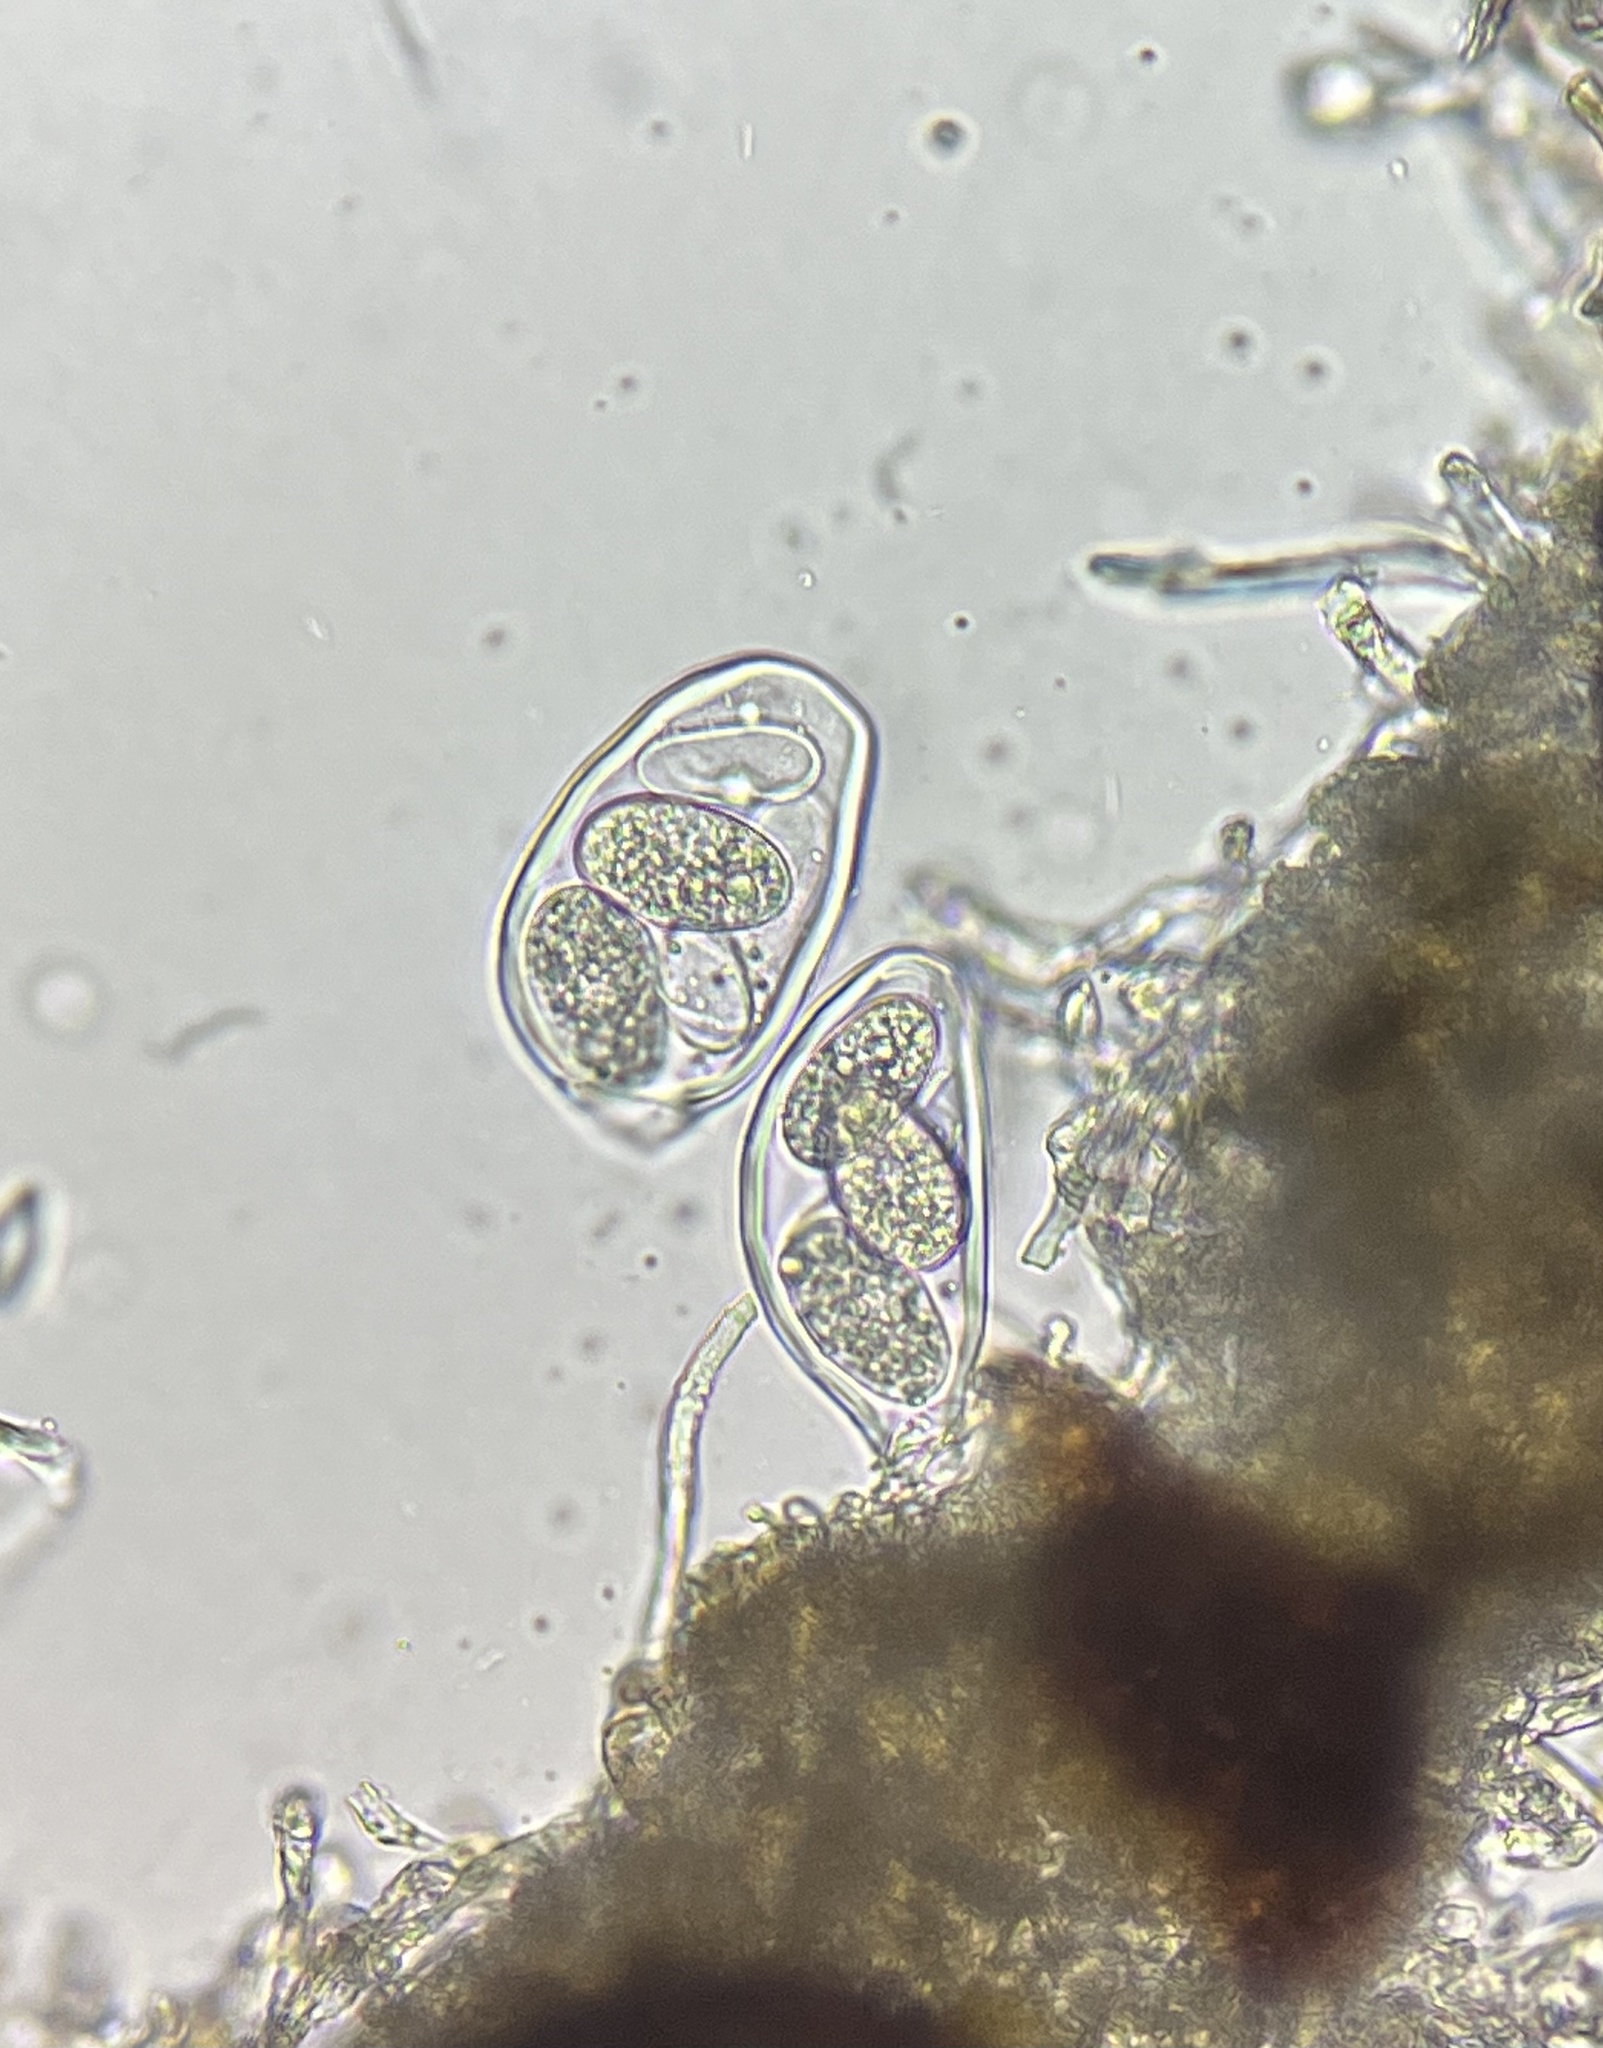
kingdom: Fungi
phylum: Ascomycota
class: Leotiomycetes
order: Helotiales
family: Erysiphaceae
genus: Erysiphe
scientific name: Erysiphe liriodendri
